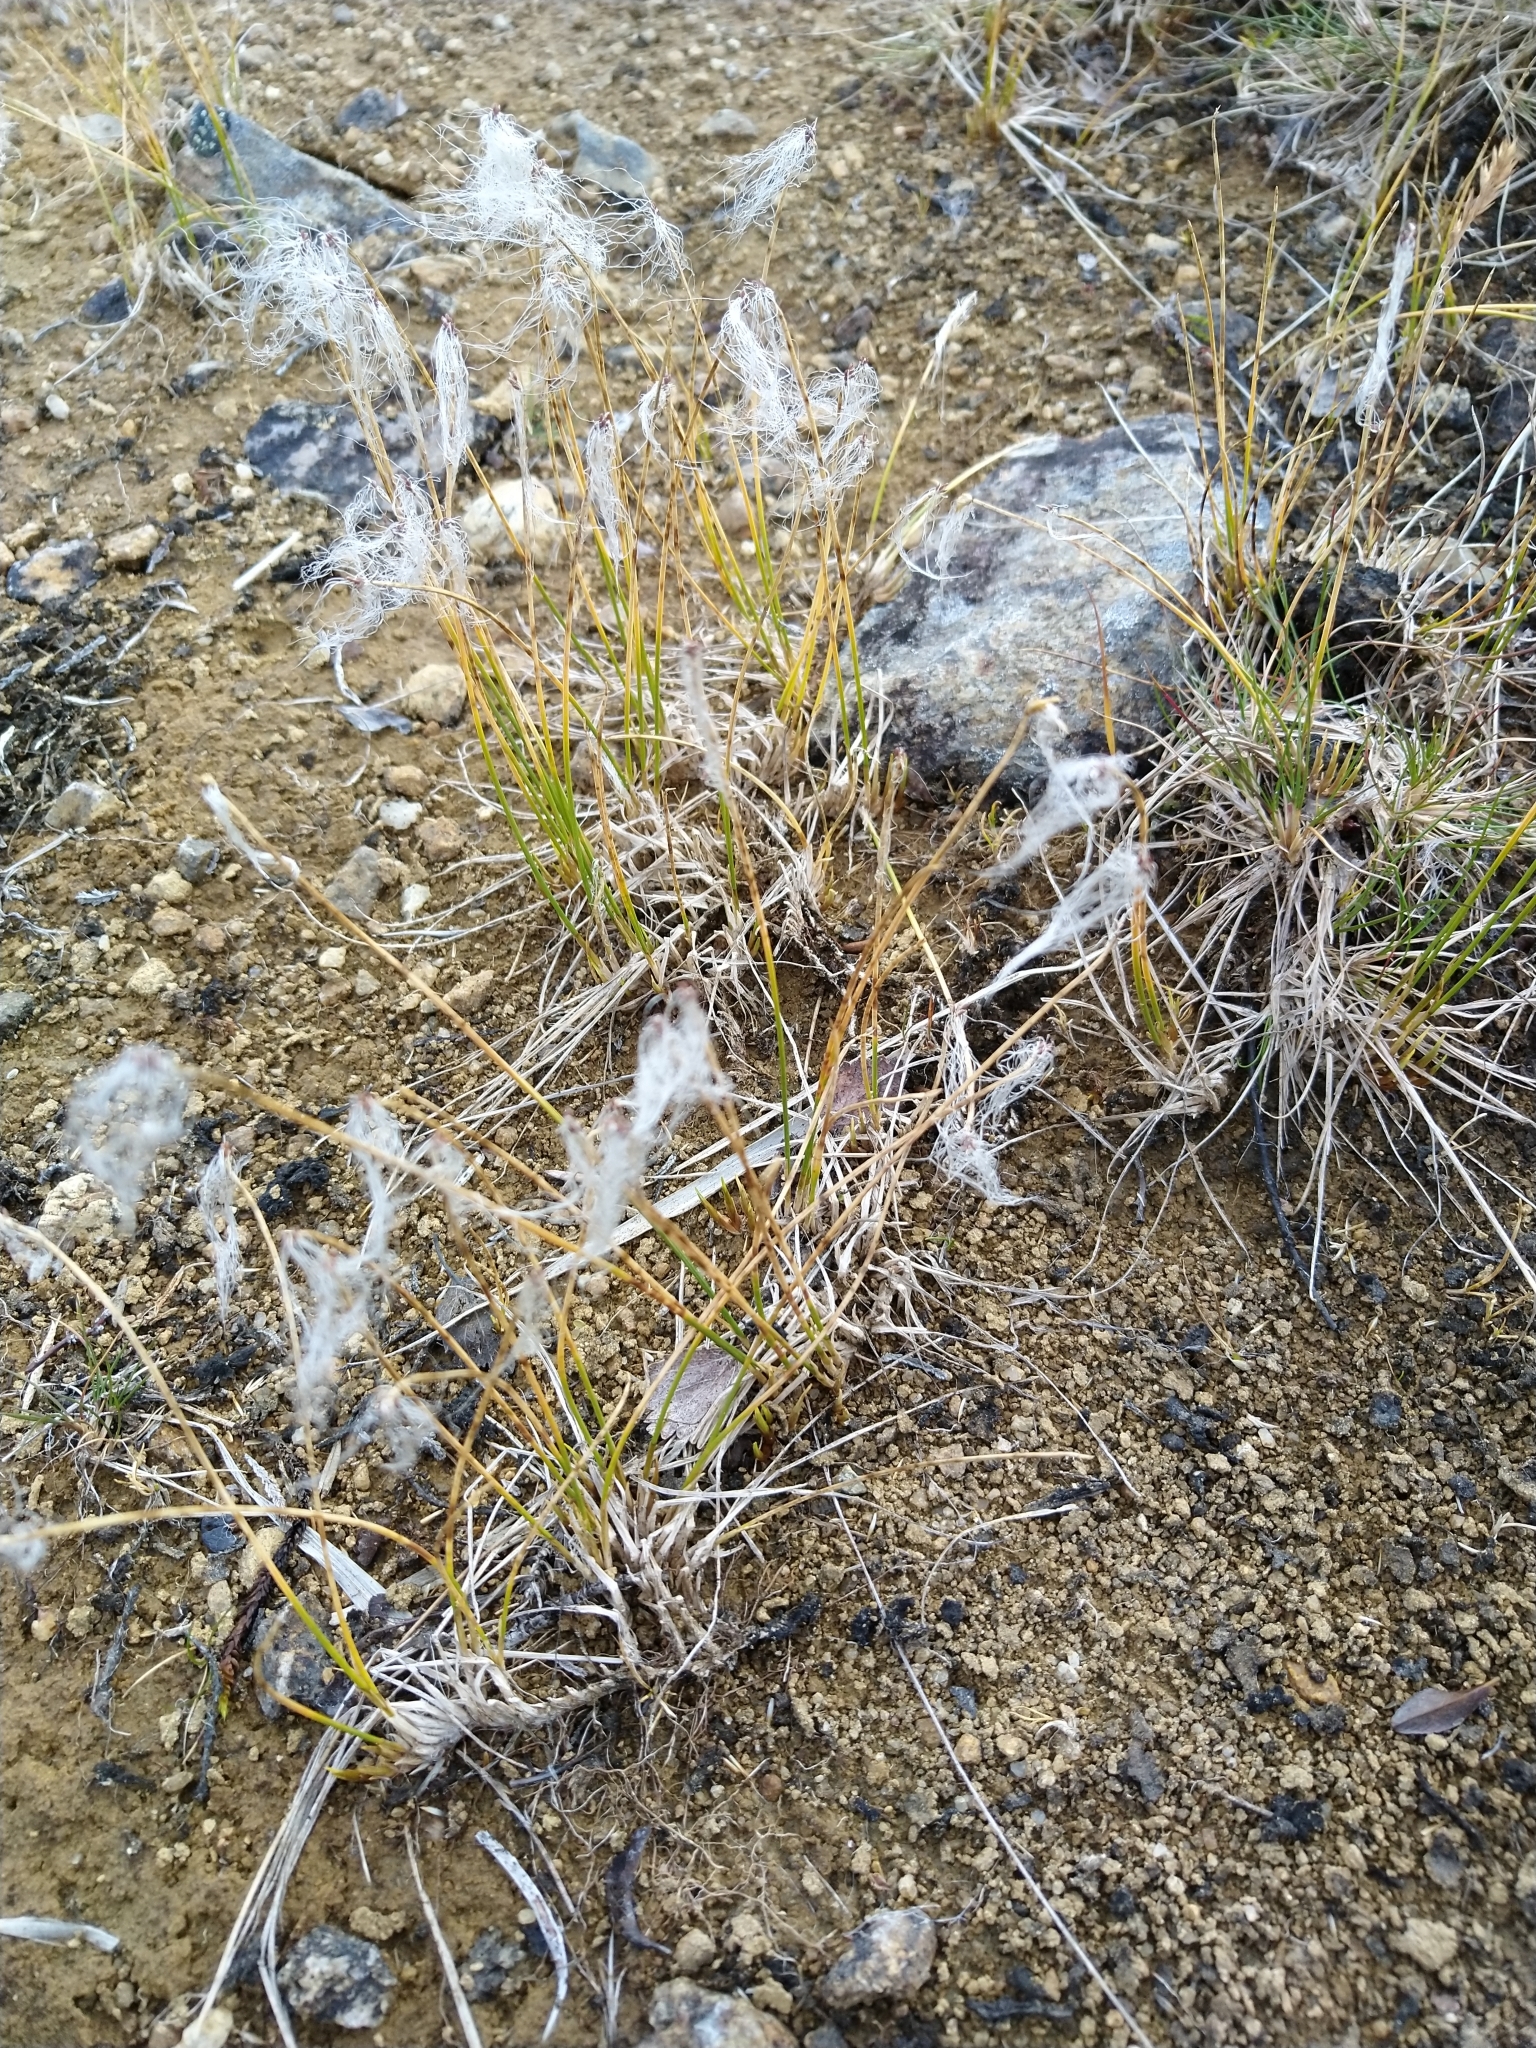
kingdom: Plantae
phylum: Tracheophyta
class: Liliopsida
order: Poales
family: Cyperaceae
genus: Trichophorum
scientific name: Trichophorum alpinum
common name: Alpine bulrush
